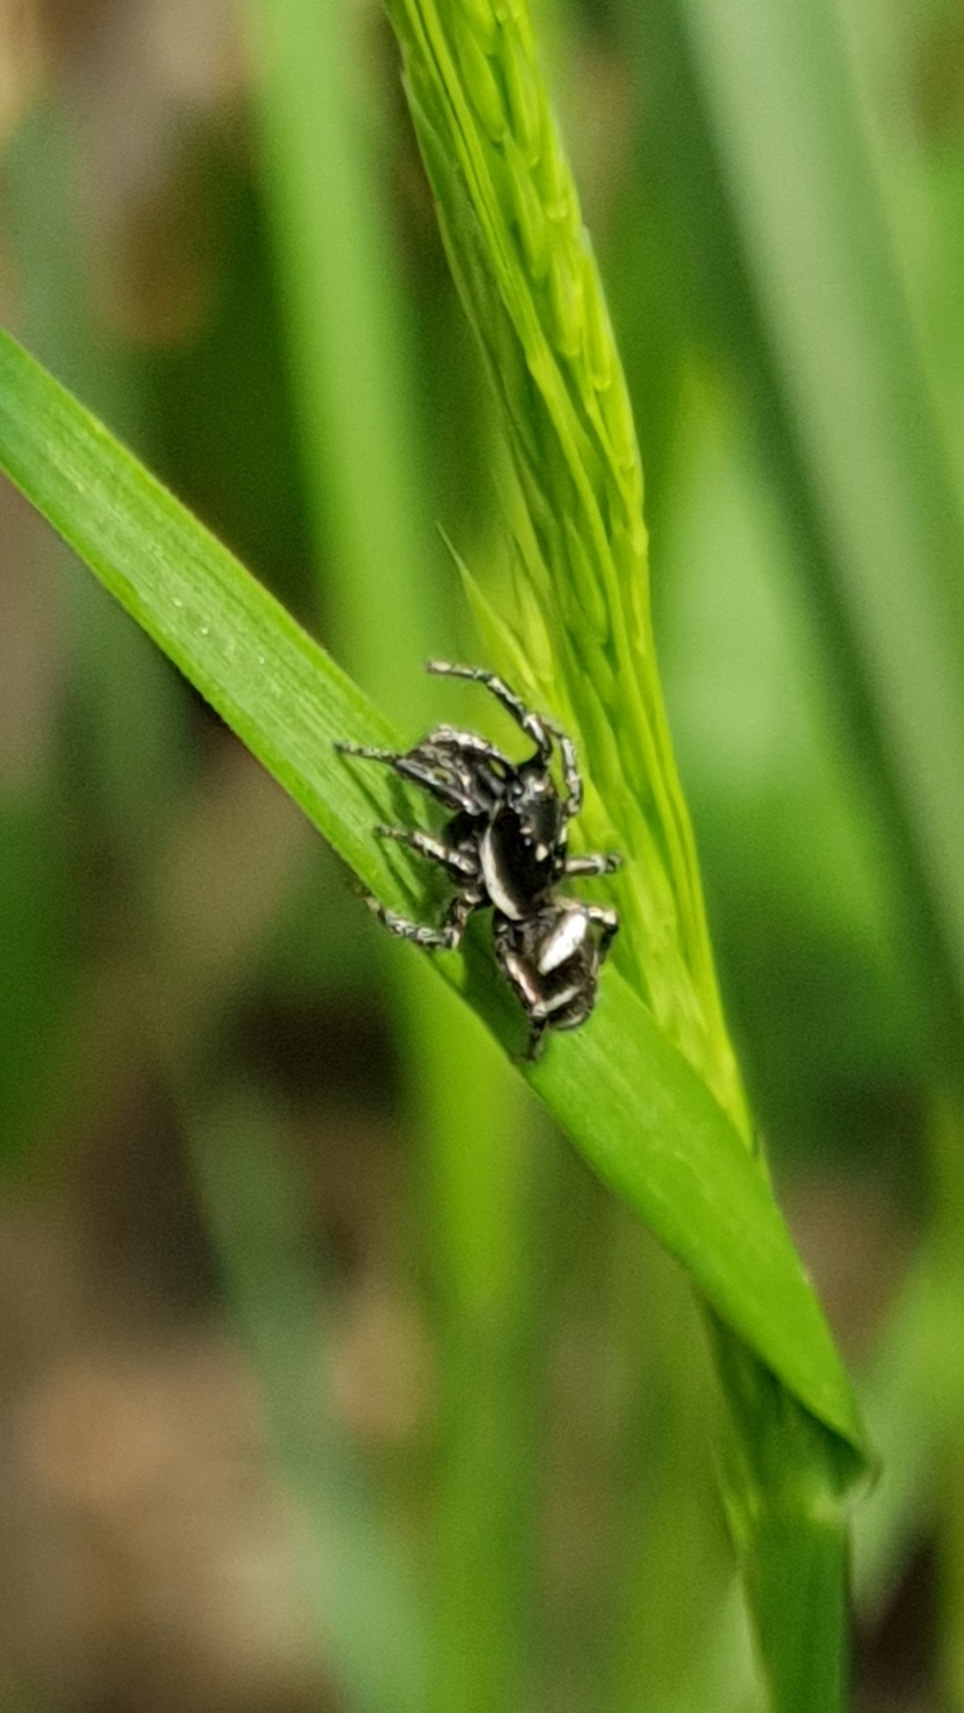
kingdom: Animalia
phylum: Arthropoda
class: Arachnida
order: Araneae
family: Salticidae
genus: Salticus
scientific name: Salticus scenicus
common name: Zebra jumper
